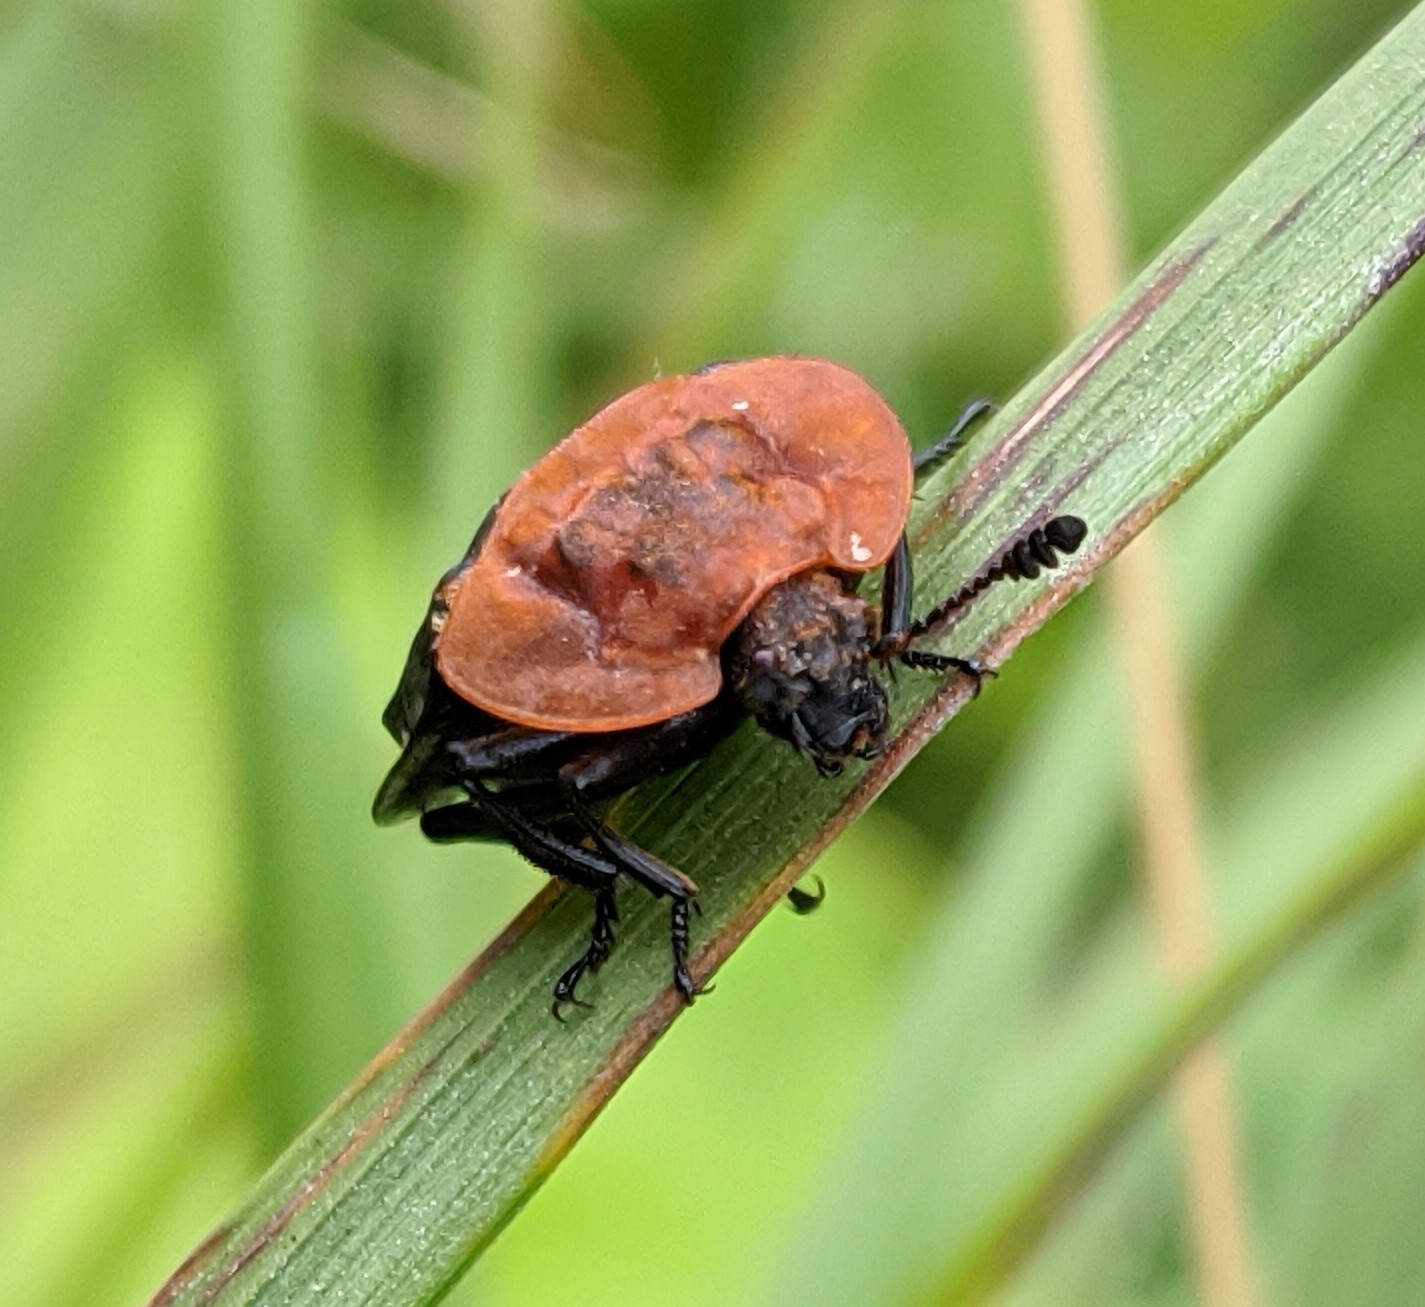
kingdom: Animalia
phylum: Arthropoda
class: Insecta
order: Coleoptera
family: Staphylinidae
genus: Oiceoptoma
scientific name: Oiceoptoma thoracicum
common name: Red-breasted carrion beetle
